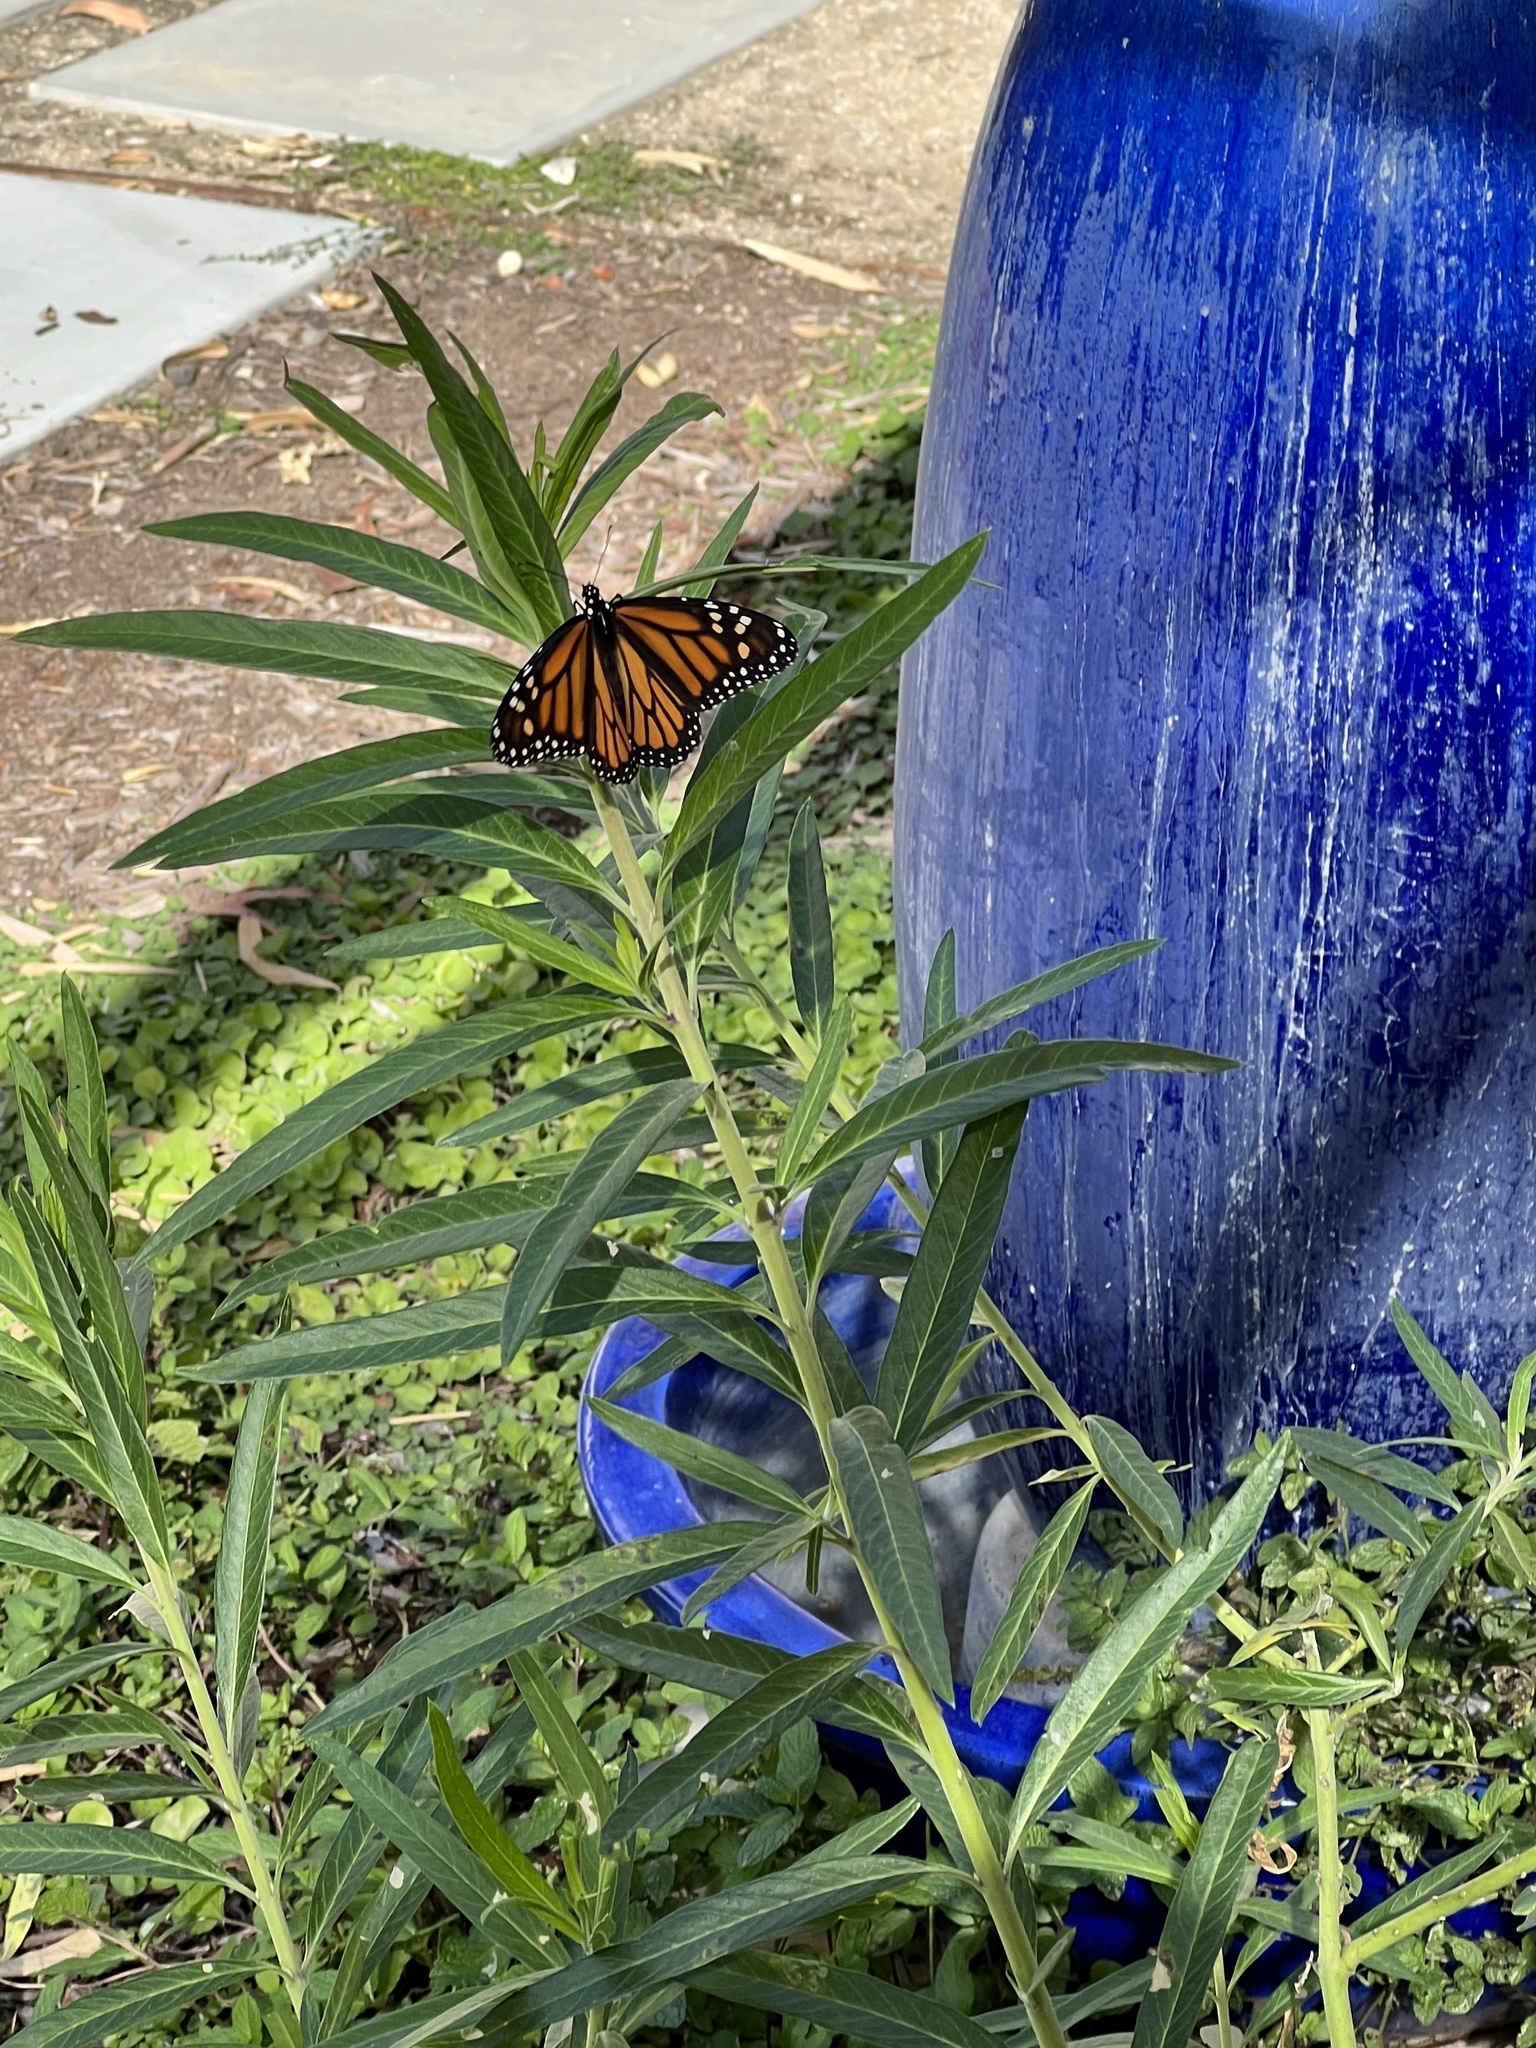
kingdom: Animalia
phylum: Arthropoda
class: Insecta
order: Lepidoptera
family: Nymphalidae
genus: Danaus
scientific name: Danaus plexippus
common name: Monarch
